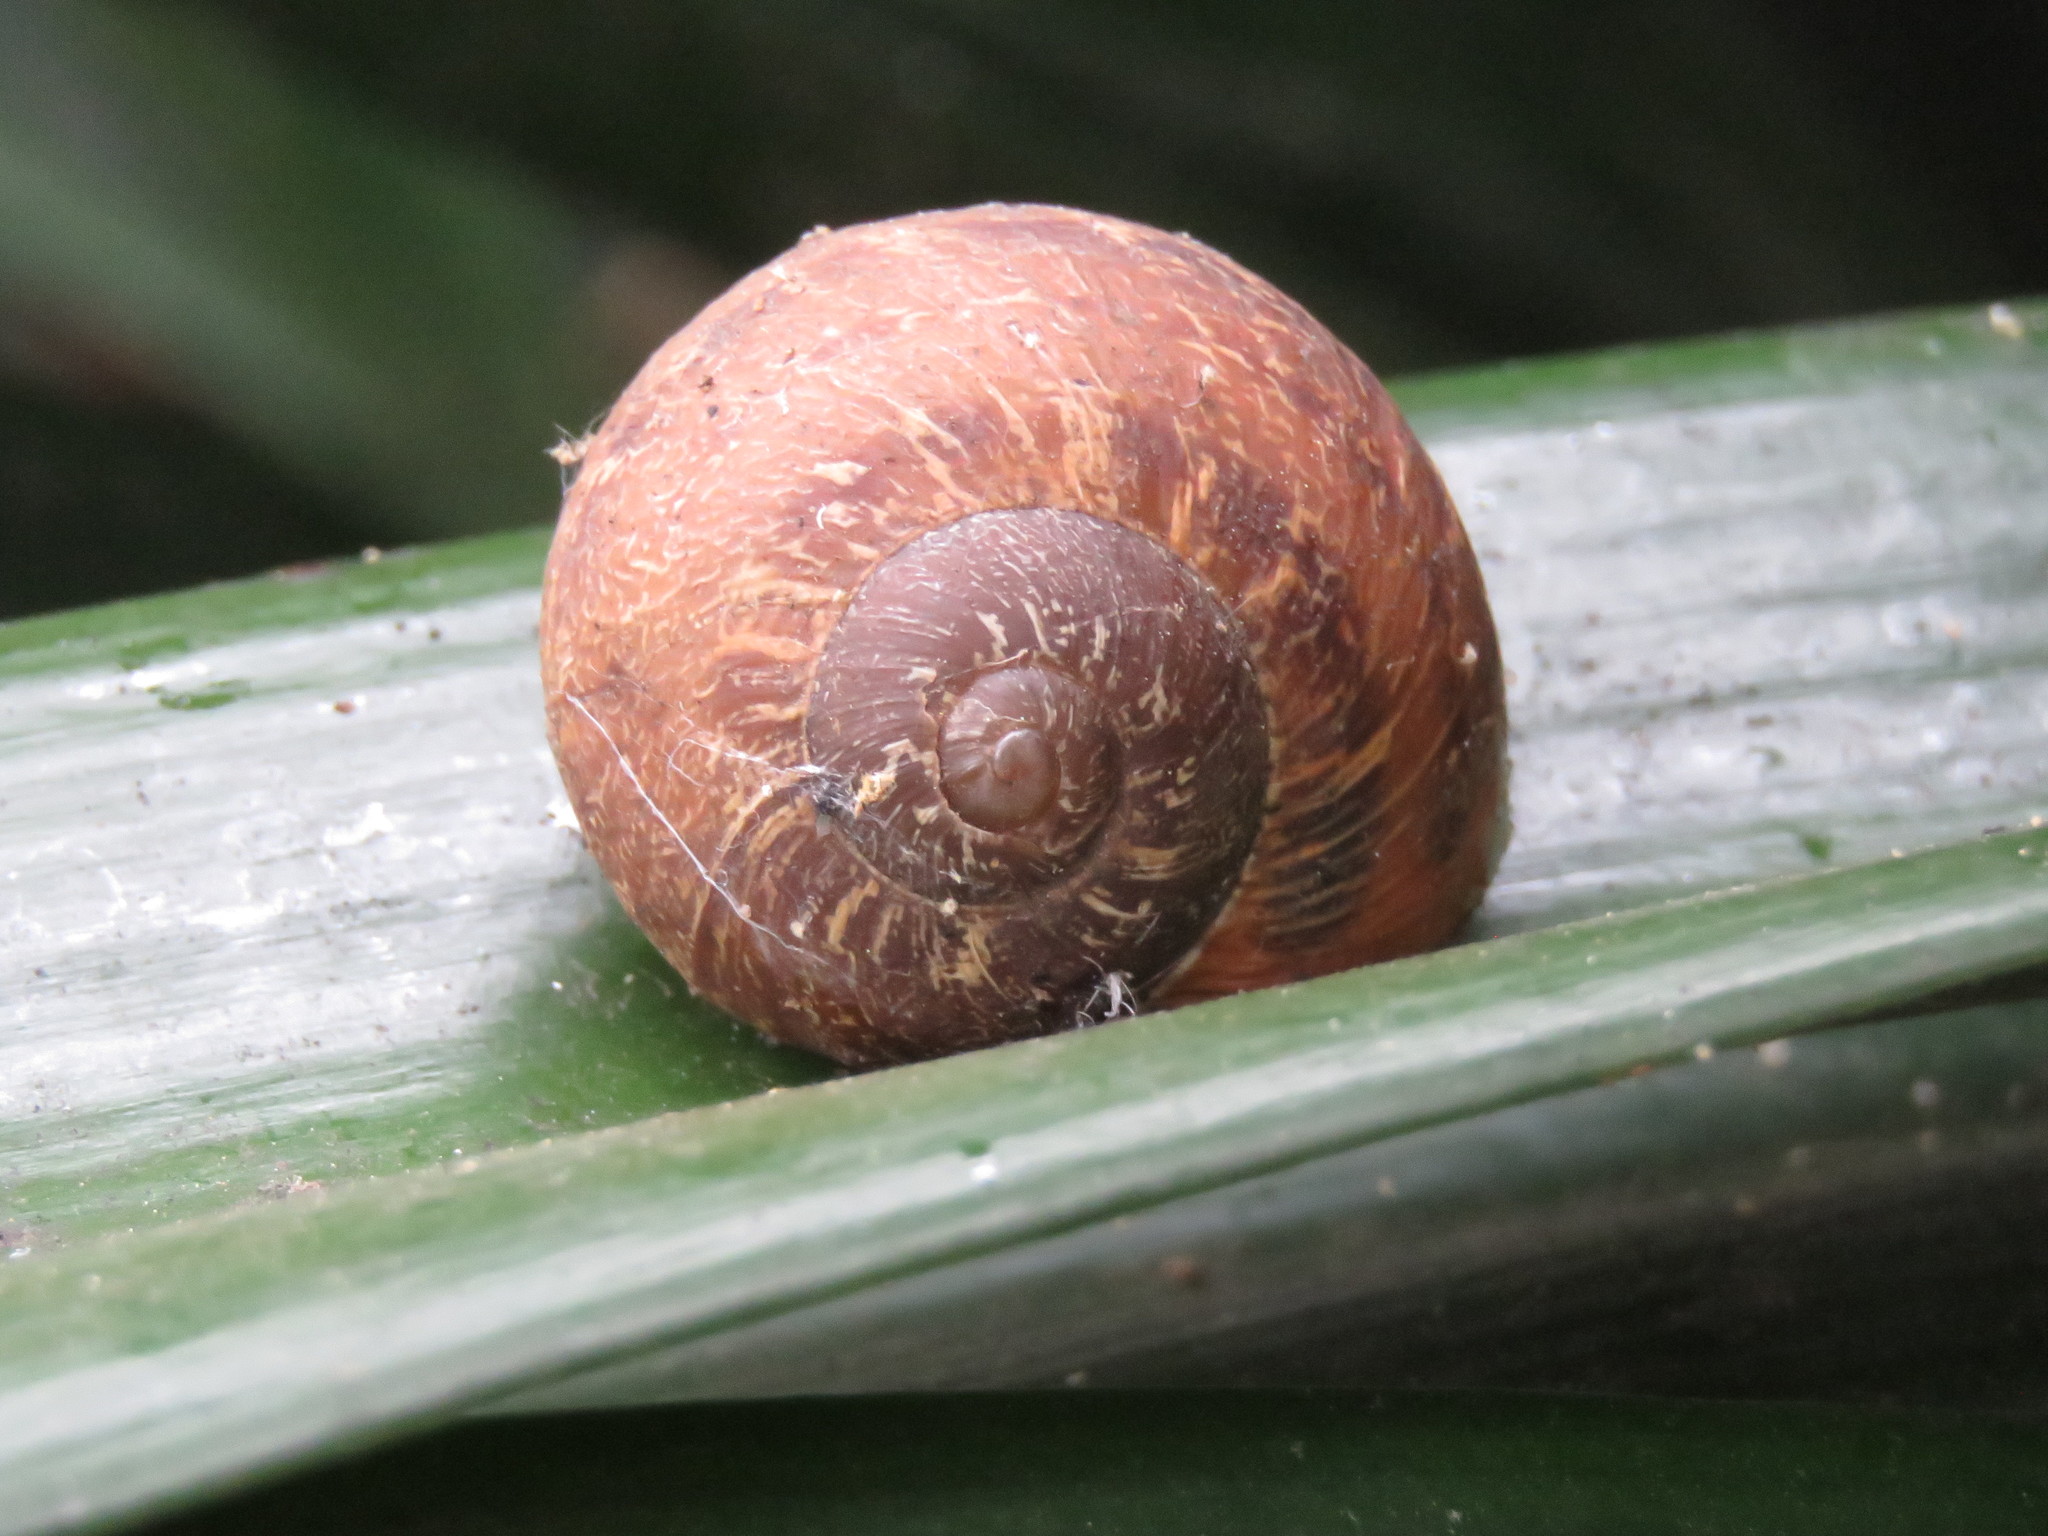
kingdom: Animalia
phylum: Mollusca
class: Gastropoda
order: Stylommatophora
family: Helicidae
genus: Cornu
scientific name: Cornu aspersum
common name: Brown garden snail
